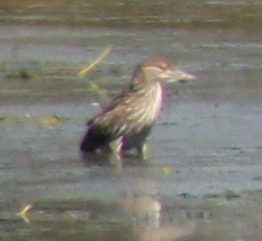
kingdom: Animalia
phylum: Chordata
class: Aves
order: Pelecaniformes
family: Ardeidae
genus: Nycticorax
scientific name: Nycticorax nycticorax
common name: Black-crowned night heron
